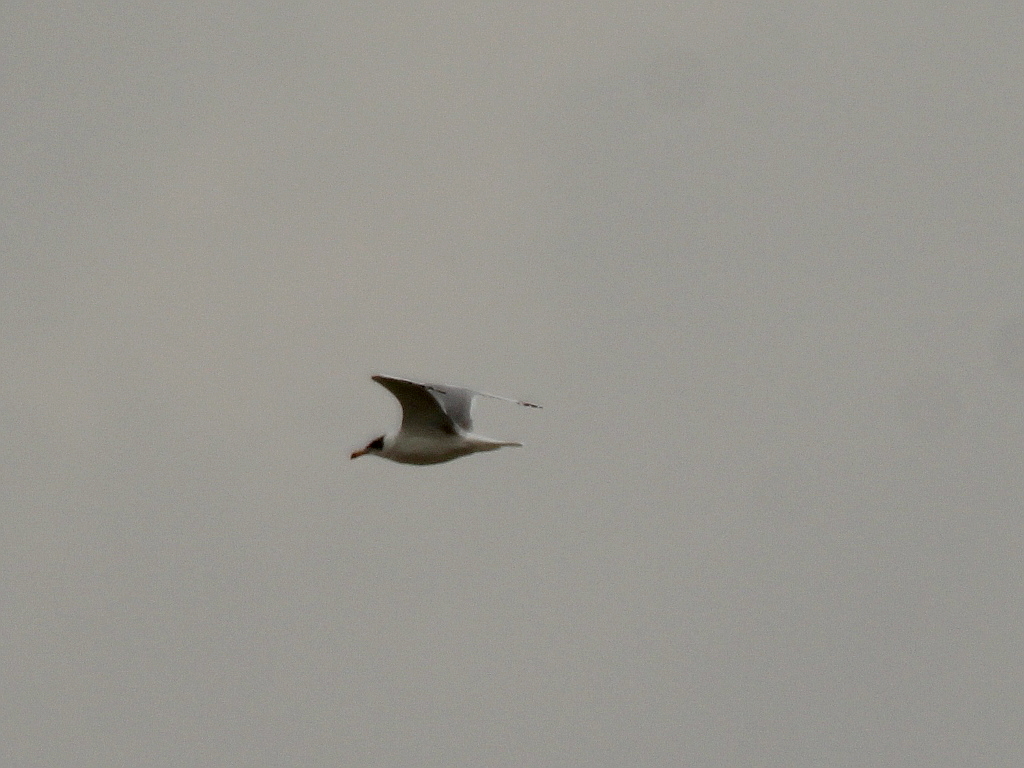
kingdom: Animalia
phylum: Chordata
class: Aves
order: Charadriiformes
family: Laridae
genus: Ichthyaetus
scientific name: Ichthyaetus ichthyaetus
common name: Pallas's gull
